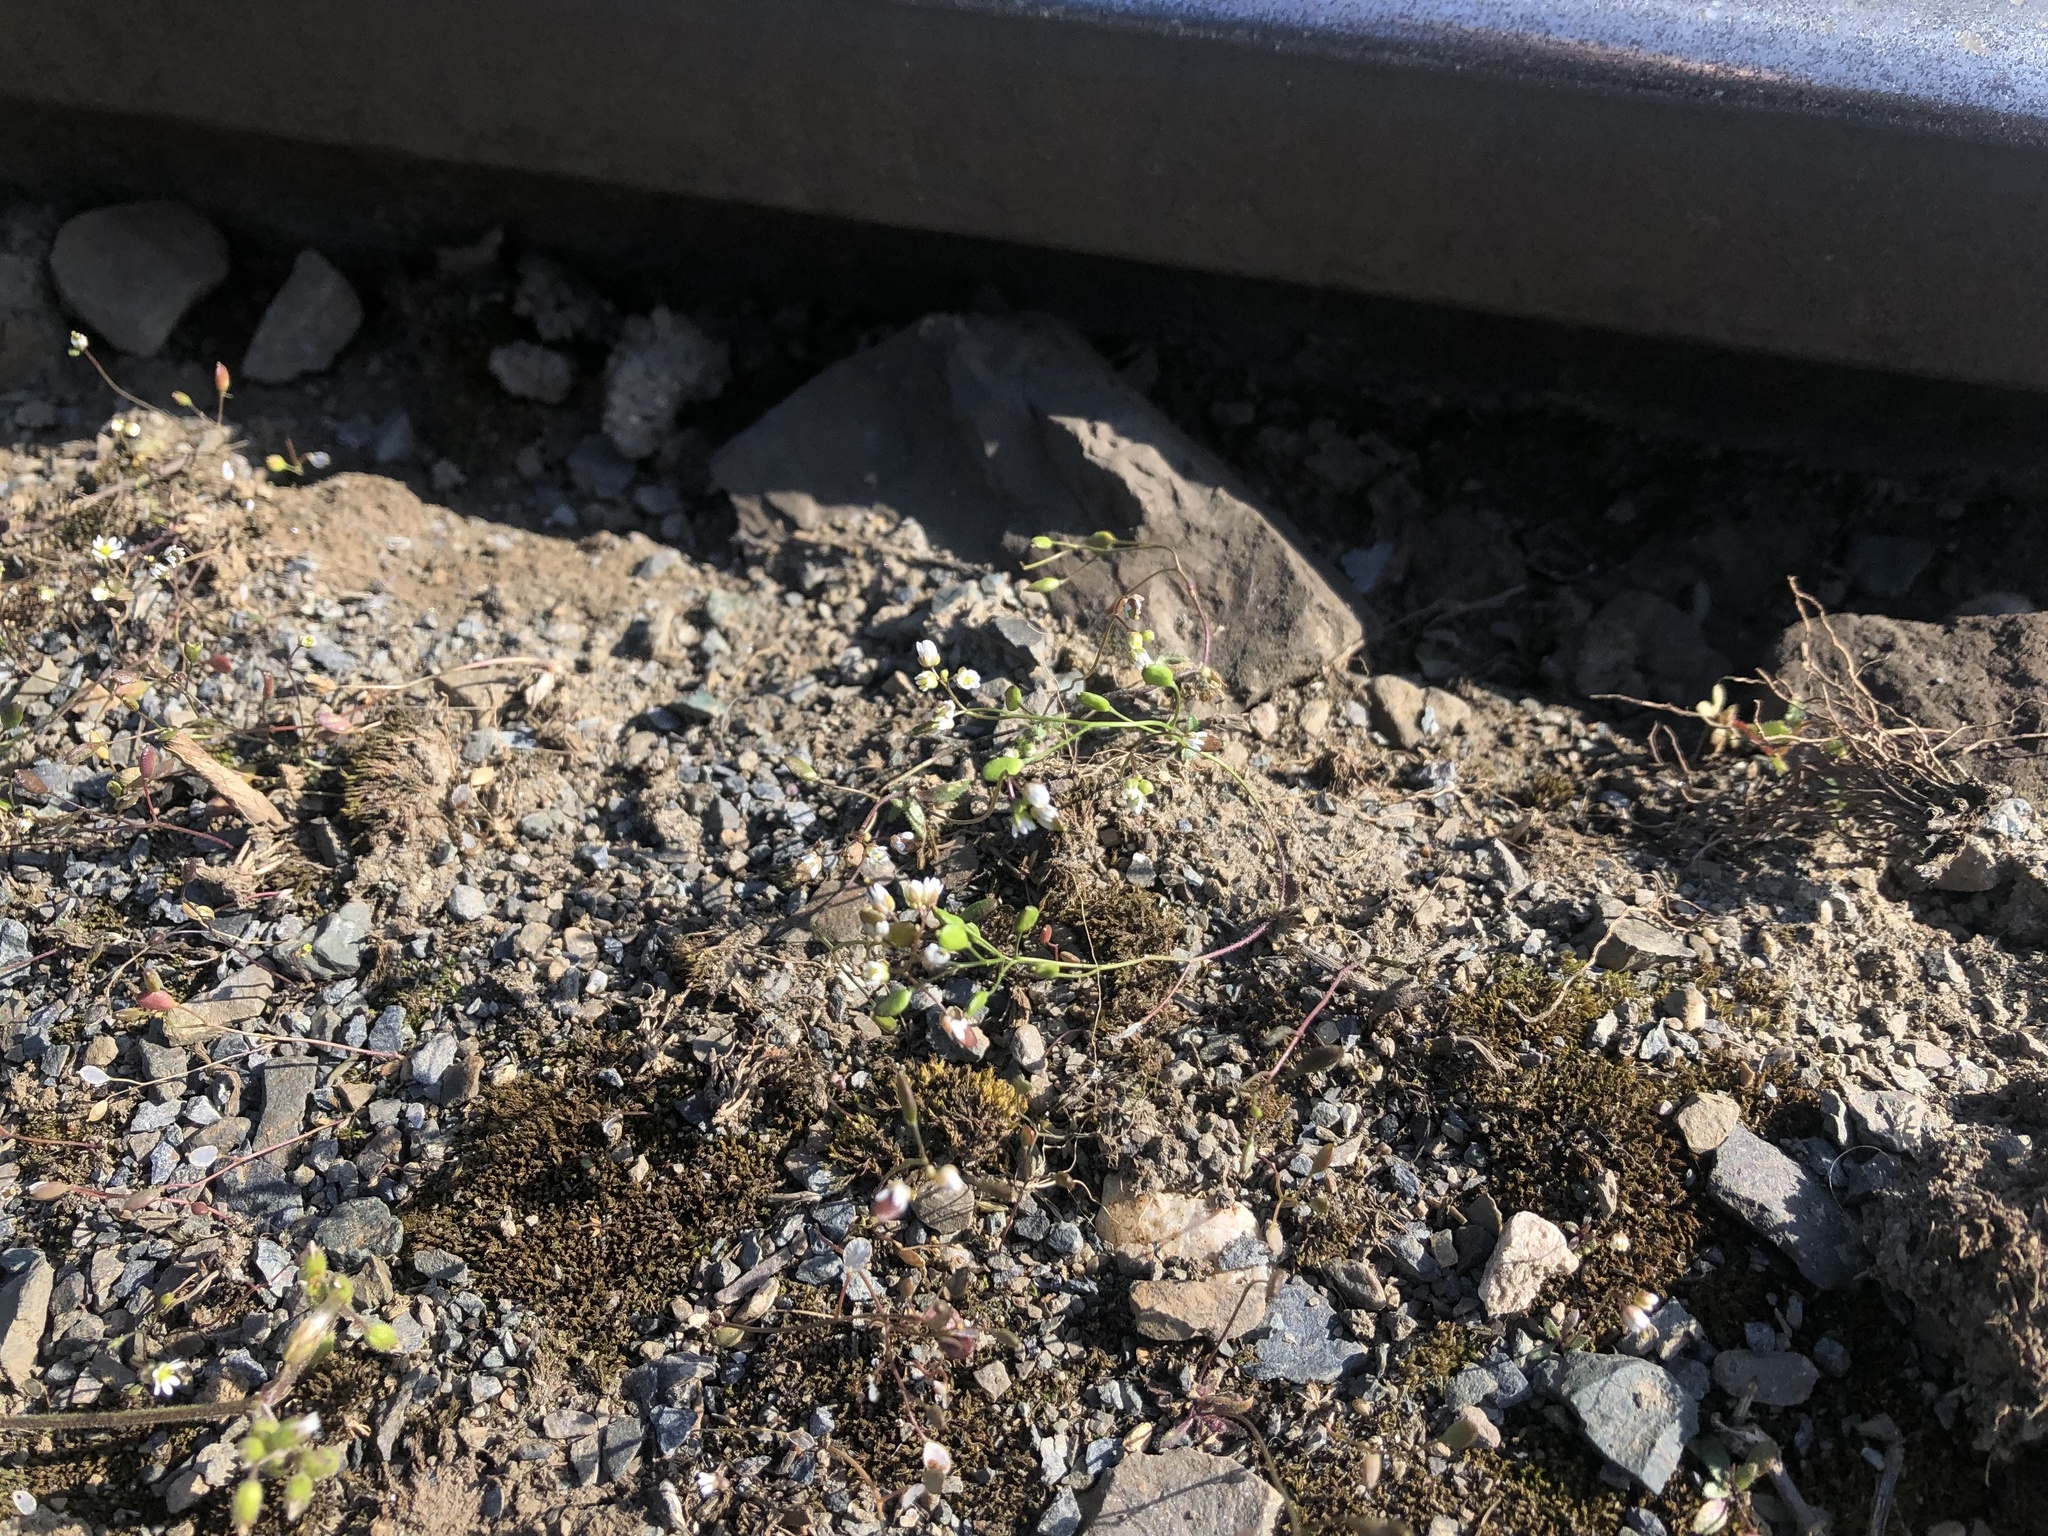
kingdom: Plantae
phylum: Tracheophyta
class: Magnoliopsida
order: Brassicales
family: Brassicaceae
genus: Draba
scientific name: Draba verna
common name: Spring draba
